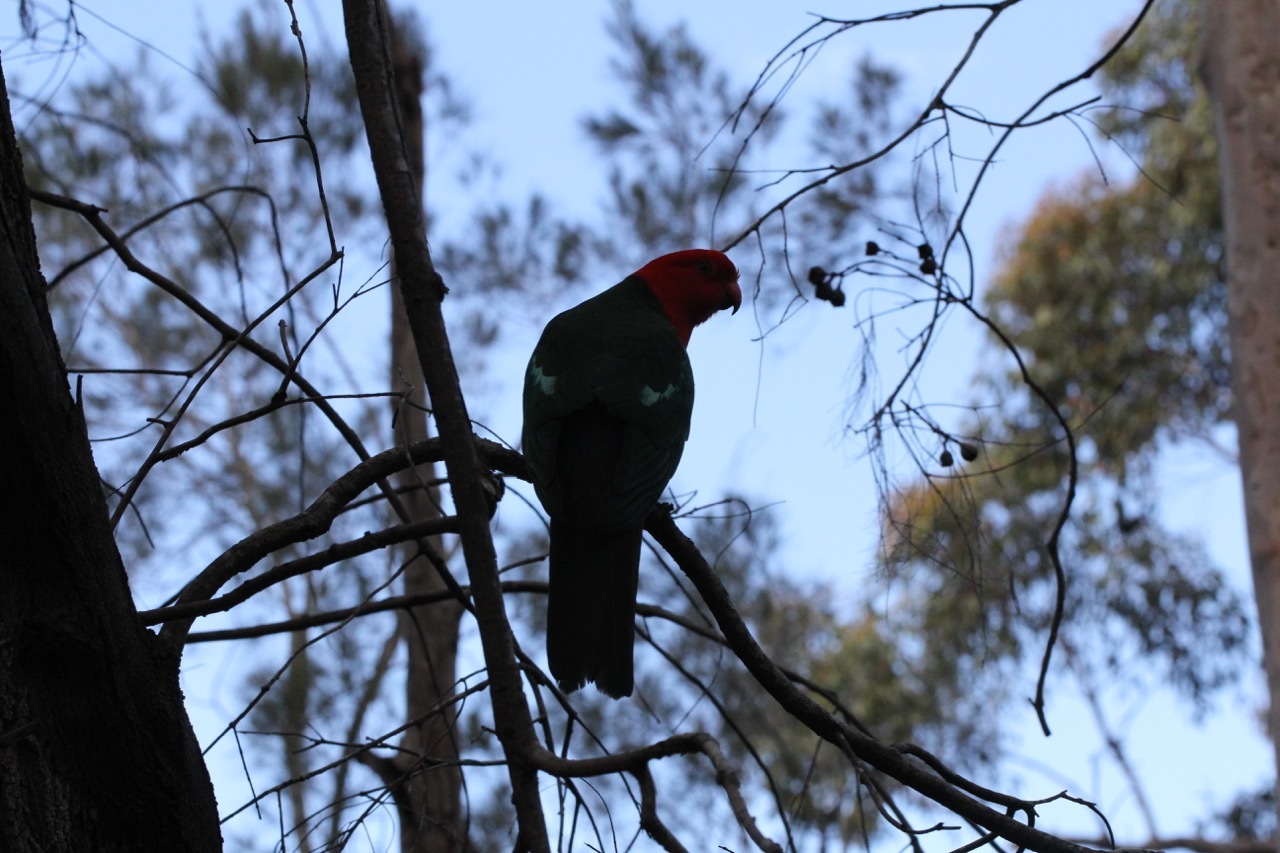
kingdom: Animalia
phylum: Chordata
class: Aves
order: Psittaciformes
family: Psittacidae
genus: Alisterus
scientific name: Alisterus scapularis
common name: Australian king parrot
